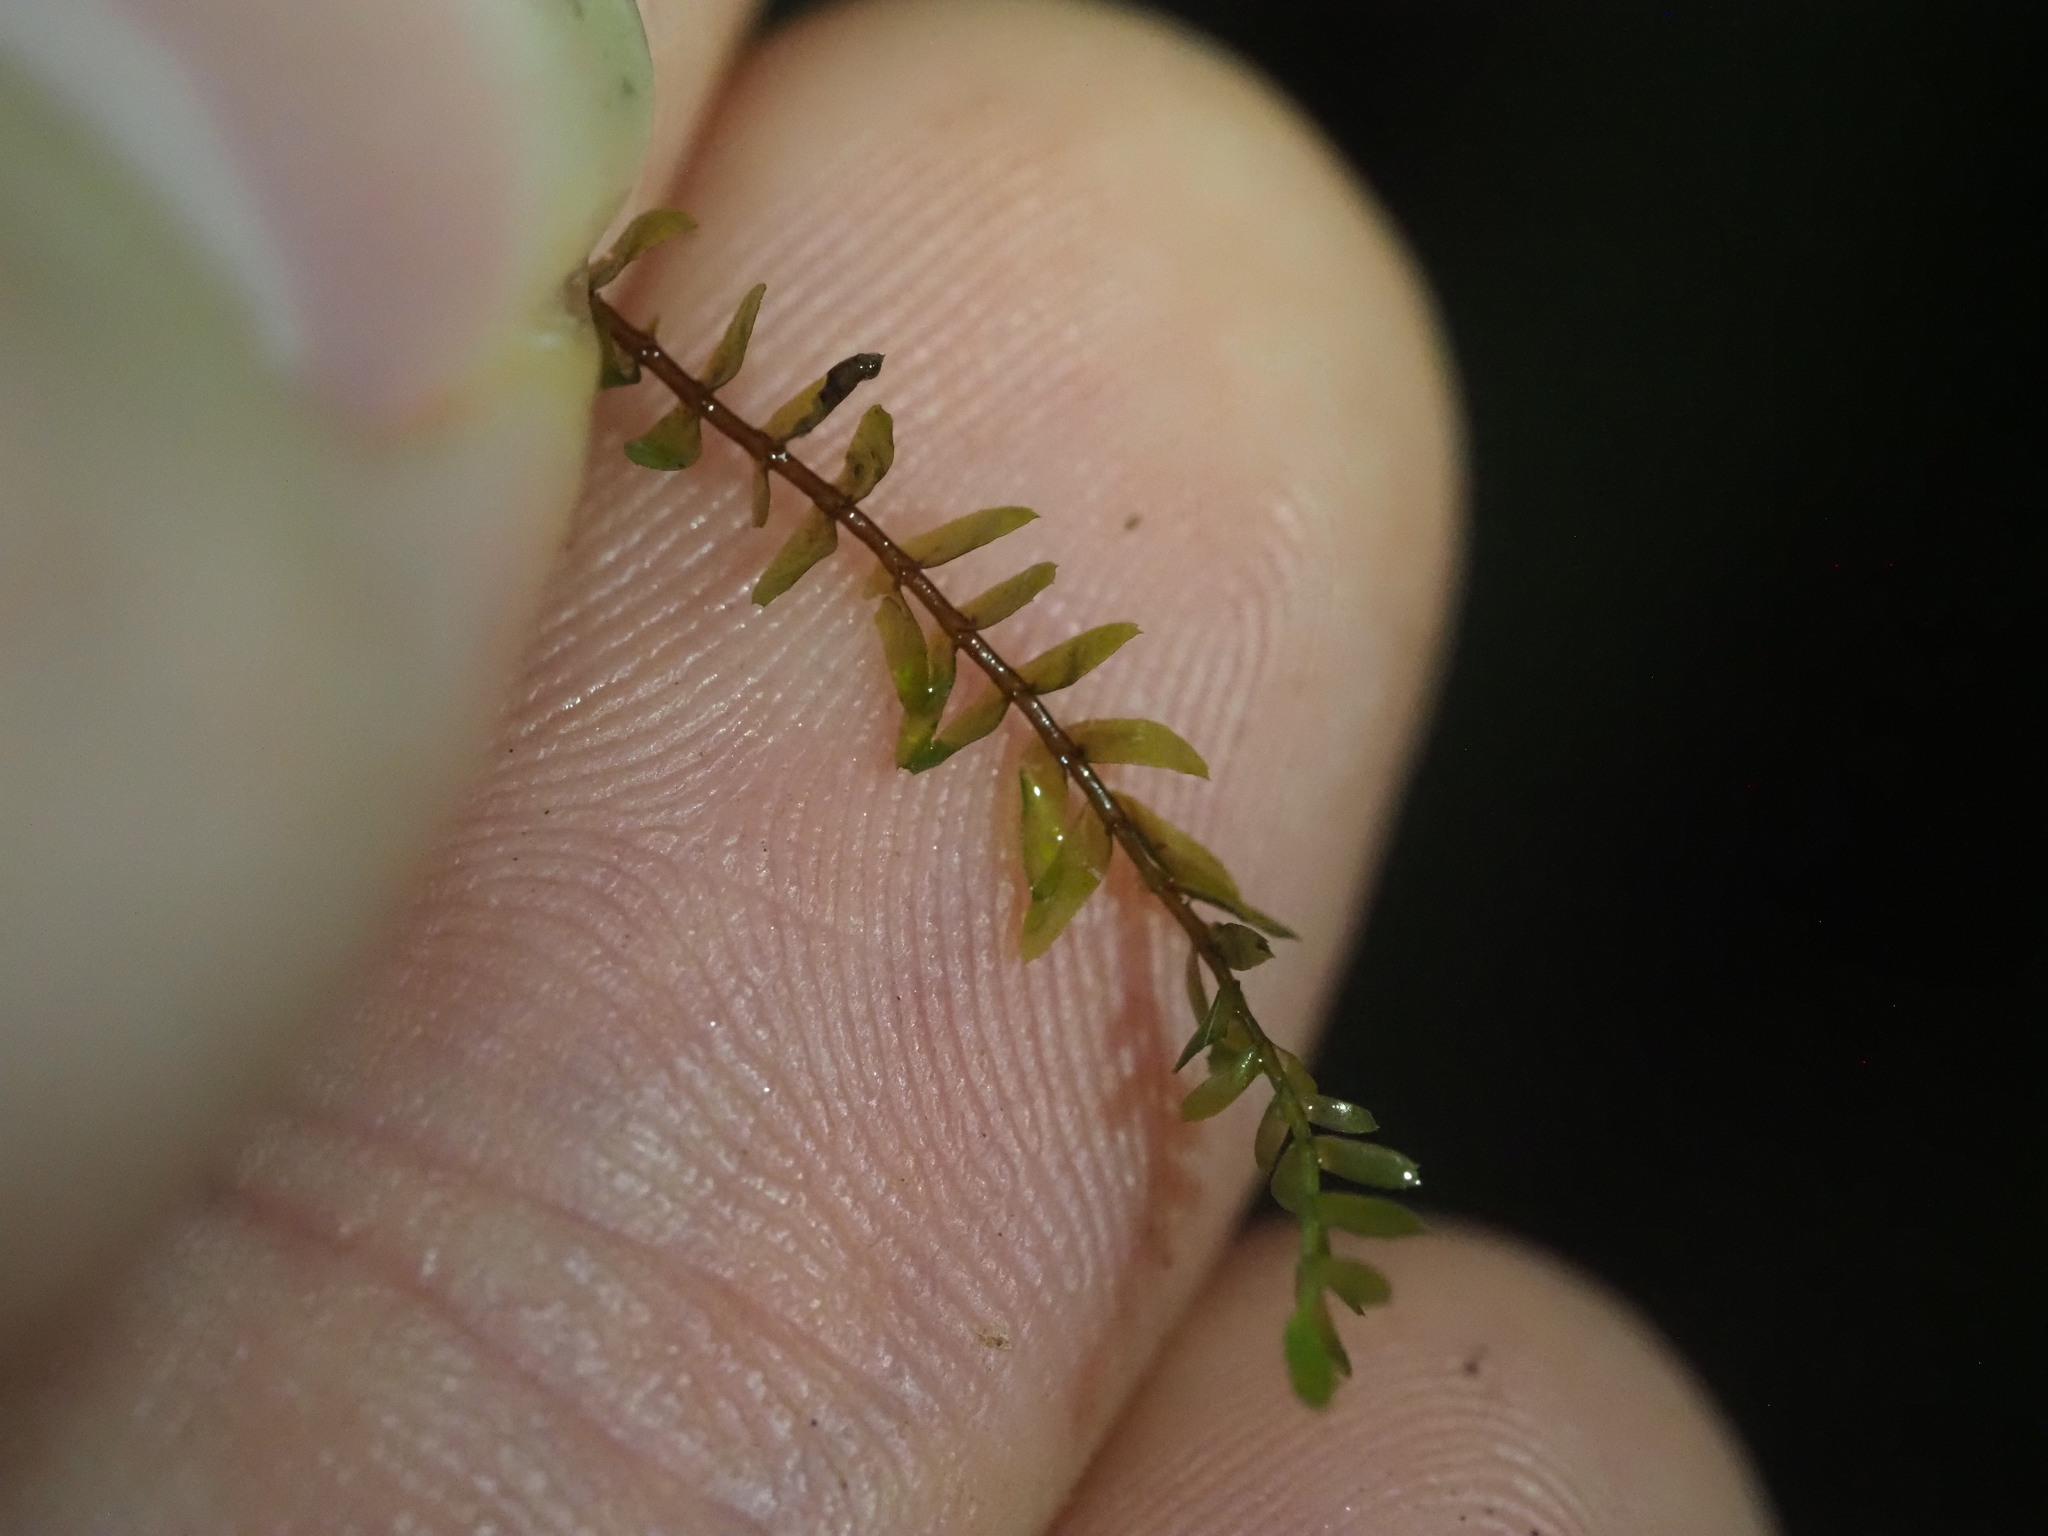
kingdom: Plantae
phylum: Marchantiophyta
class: Jungermanniopsida
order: Jungermanniales
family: Plagiochilaceae
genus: Chiastocaulon
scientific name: Chiastocaulon combinatum
